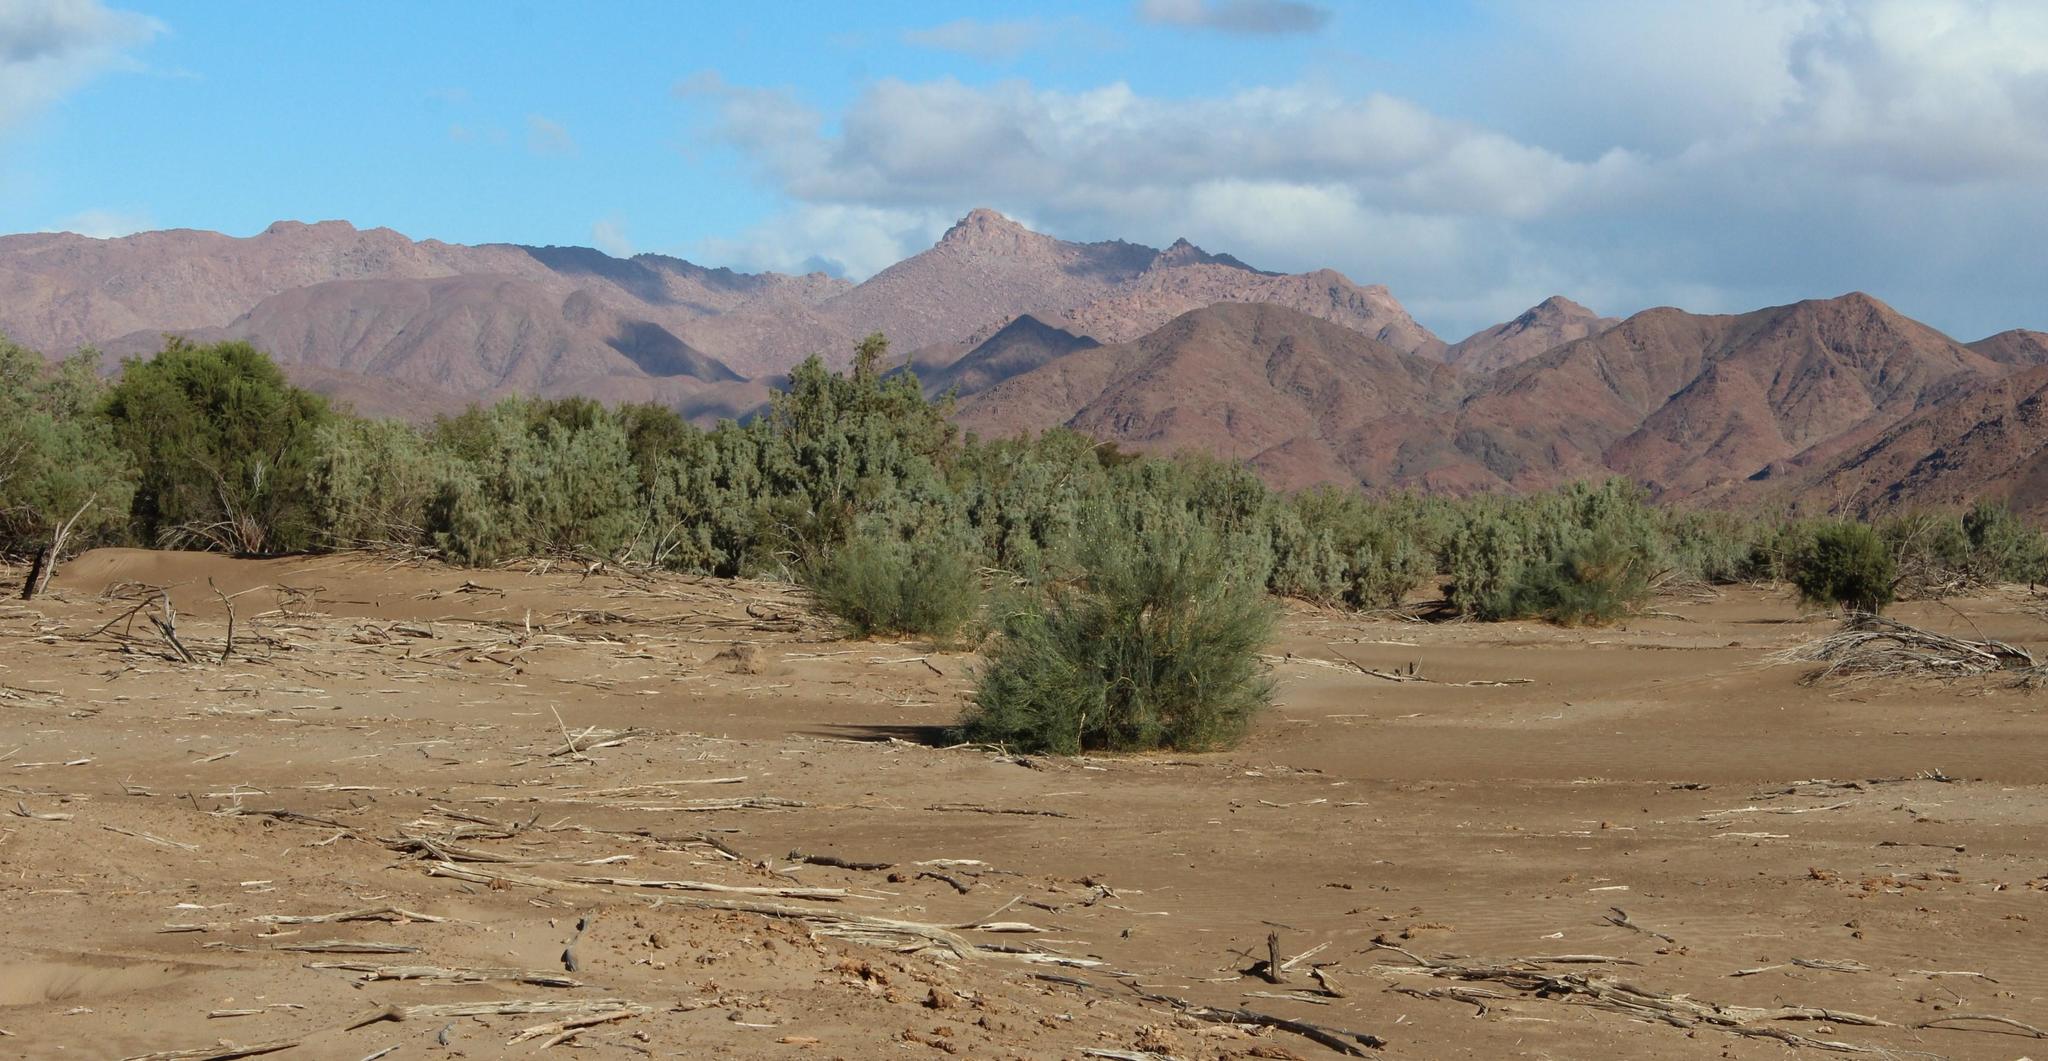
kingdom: Plantae
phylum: Tracheophyta
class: Magnoliopsida
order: Zygophyllales
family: Zygophyllaceae
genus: Sisyndite
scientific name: Sisyndite spartea
